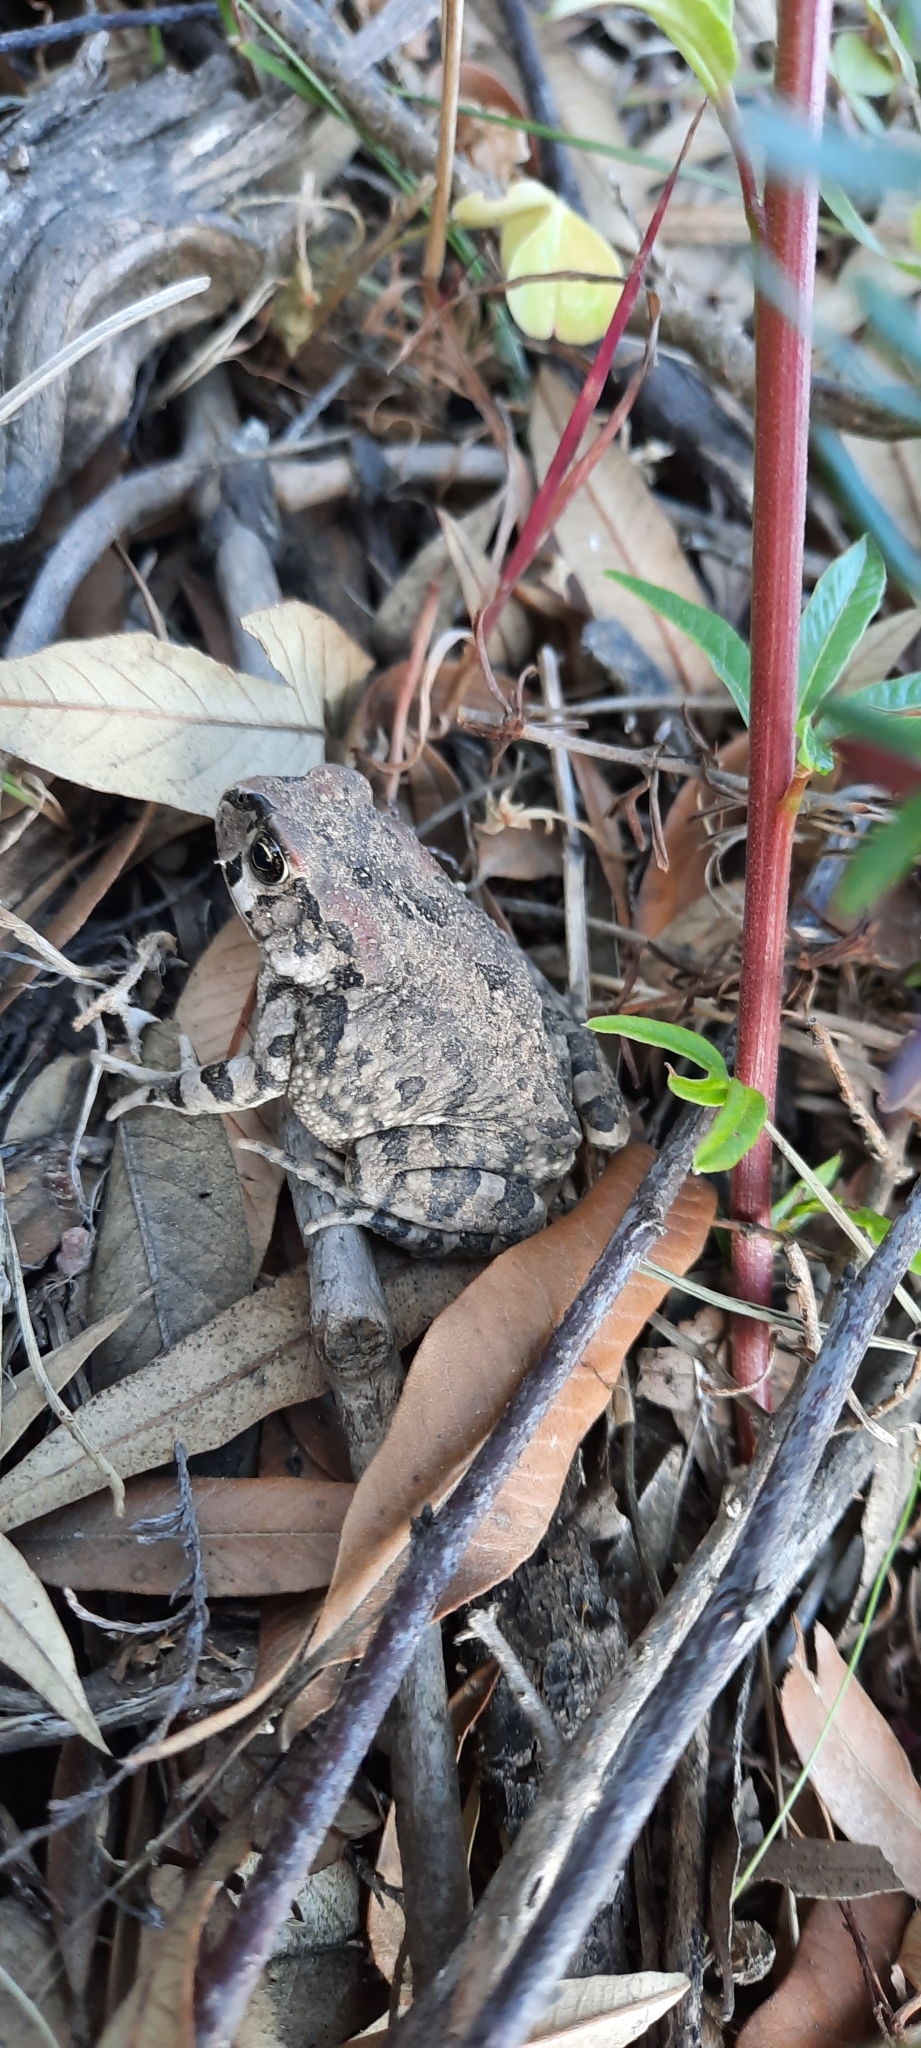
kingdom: Animalia
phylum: Chordata
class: Amphibia
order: Anura
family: Bufonidae
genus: Sclerophrys
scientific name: Sclerophrys capensis
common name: Ranger’s toad
